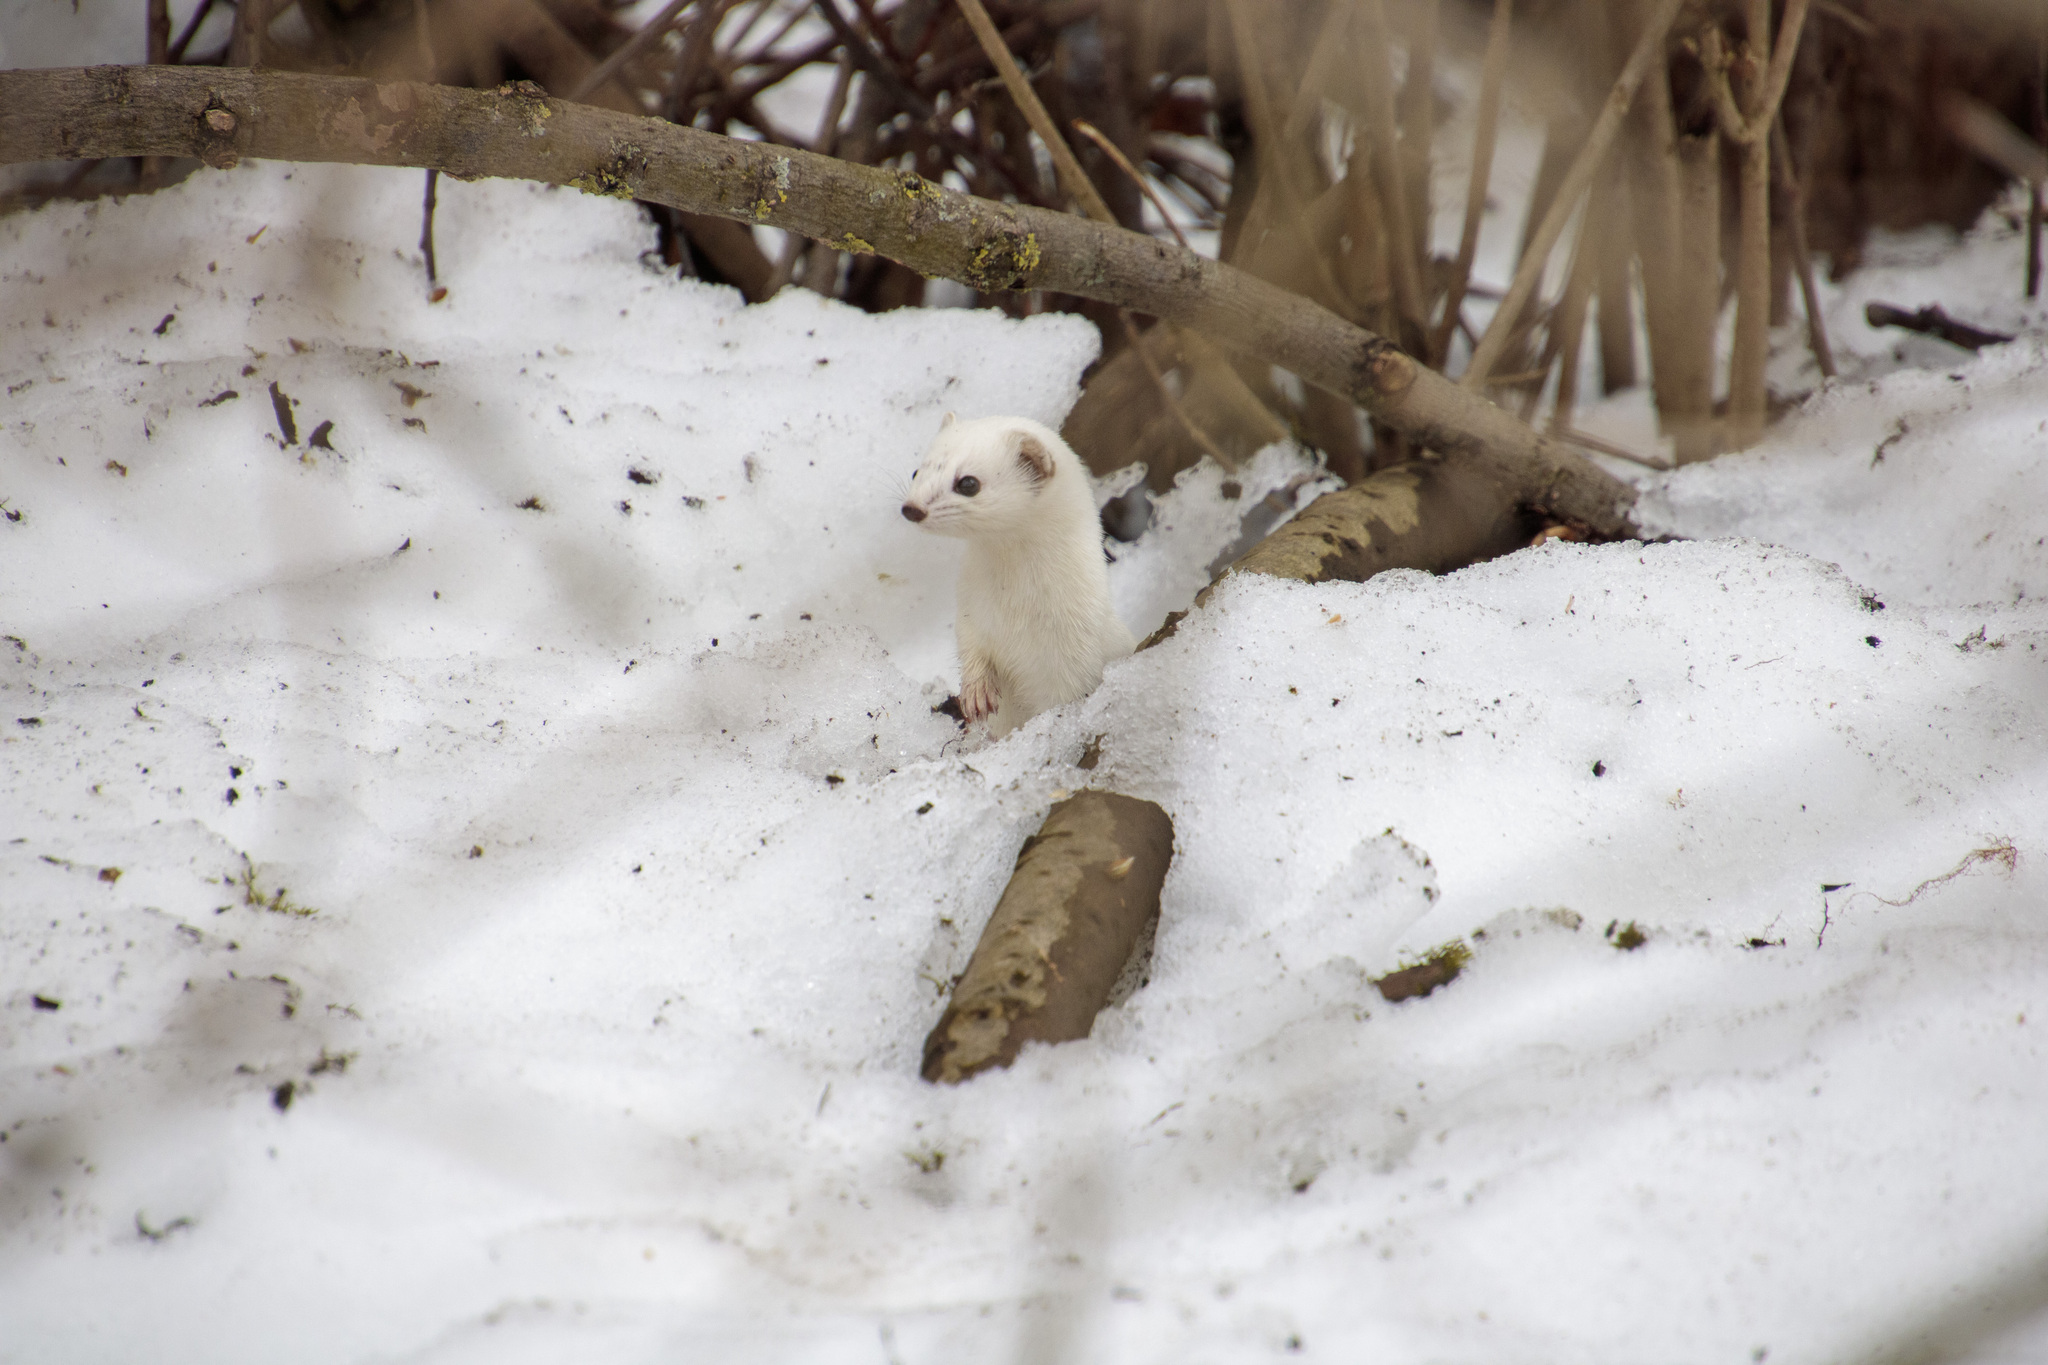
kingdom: Animalia
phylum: Chordata
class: Mammalia
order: Carnivora
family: Mustelidae
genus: Mustela
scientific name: Mustela nivalis
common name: Least weasel
